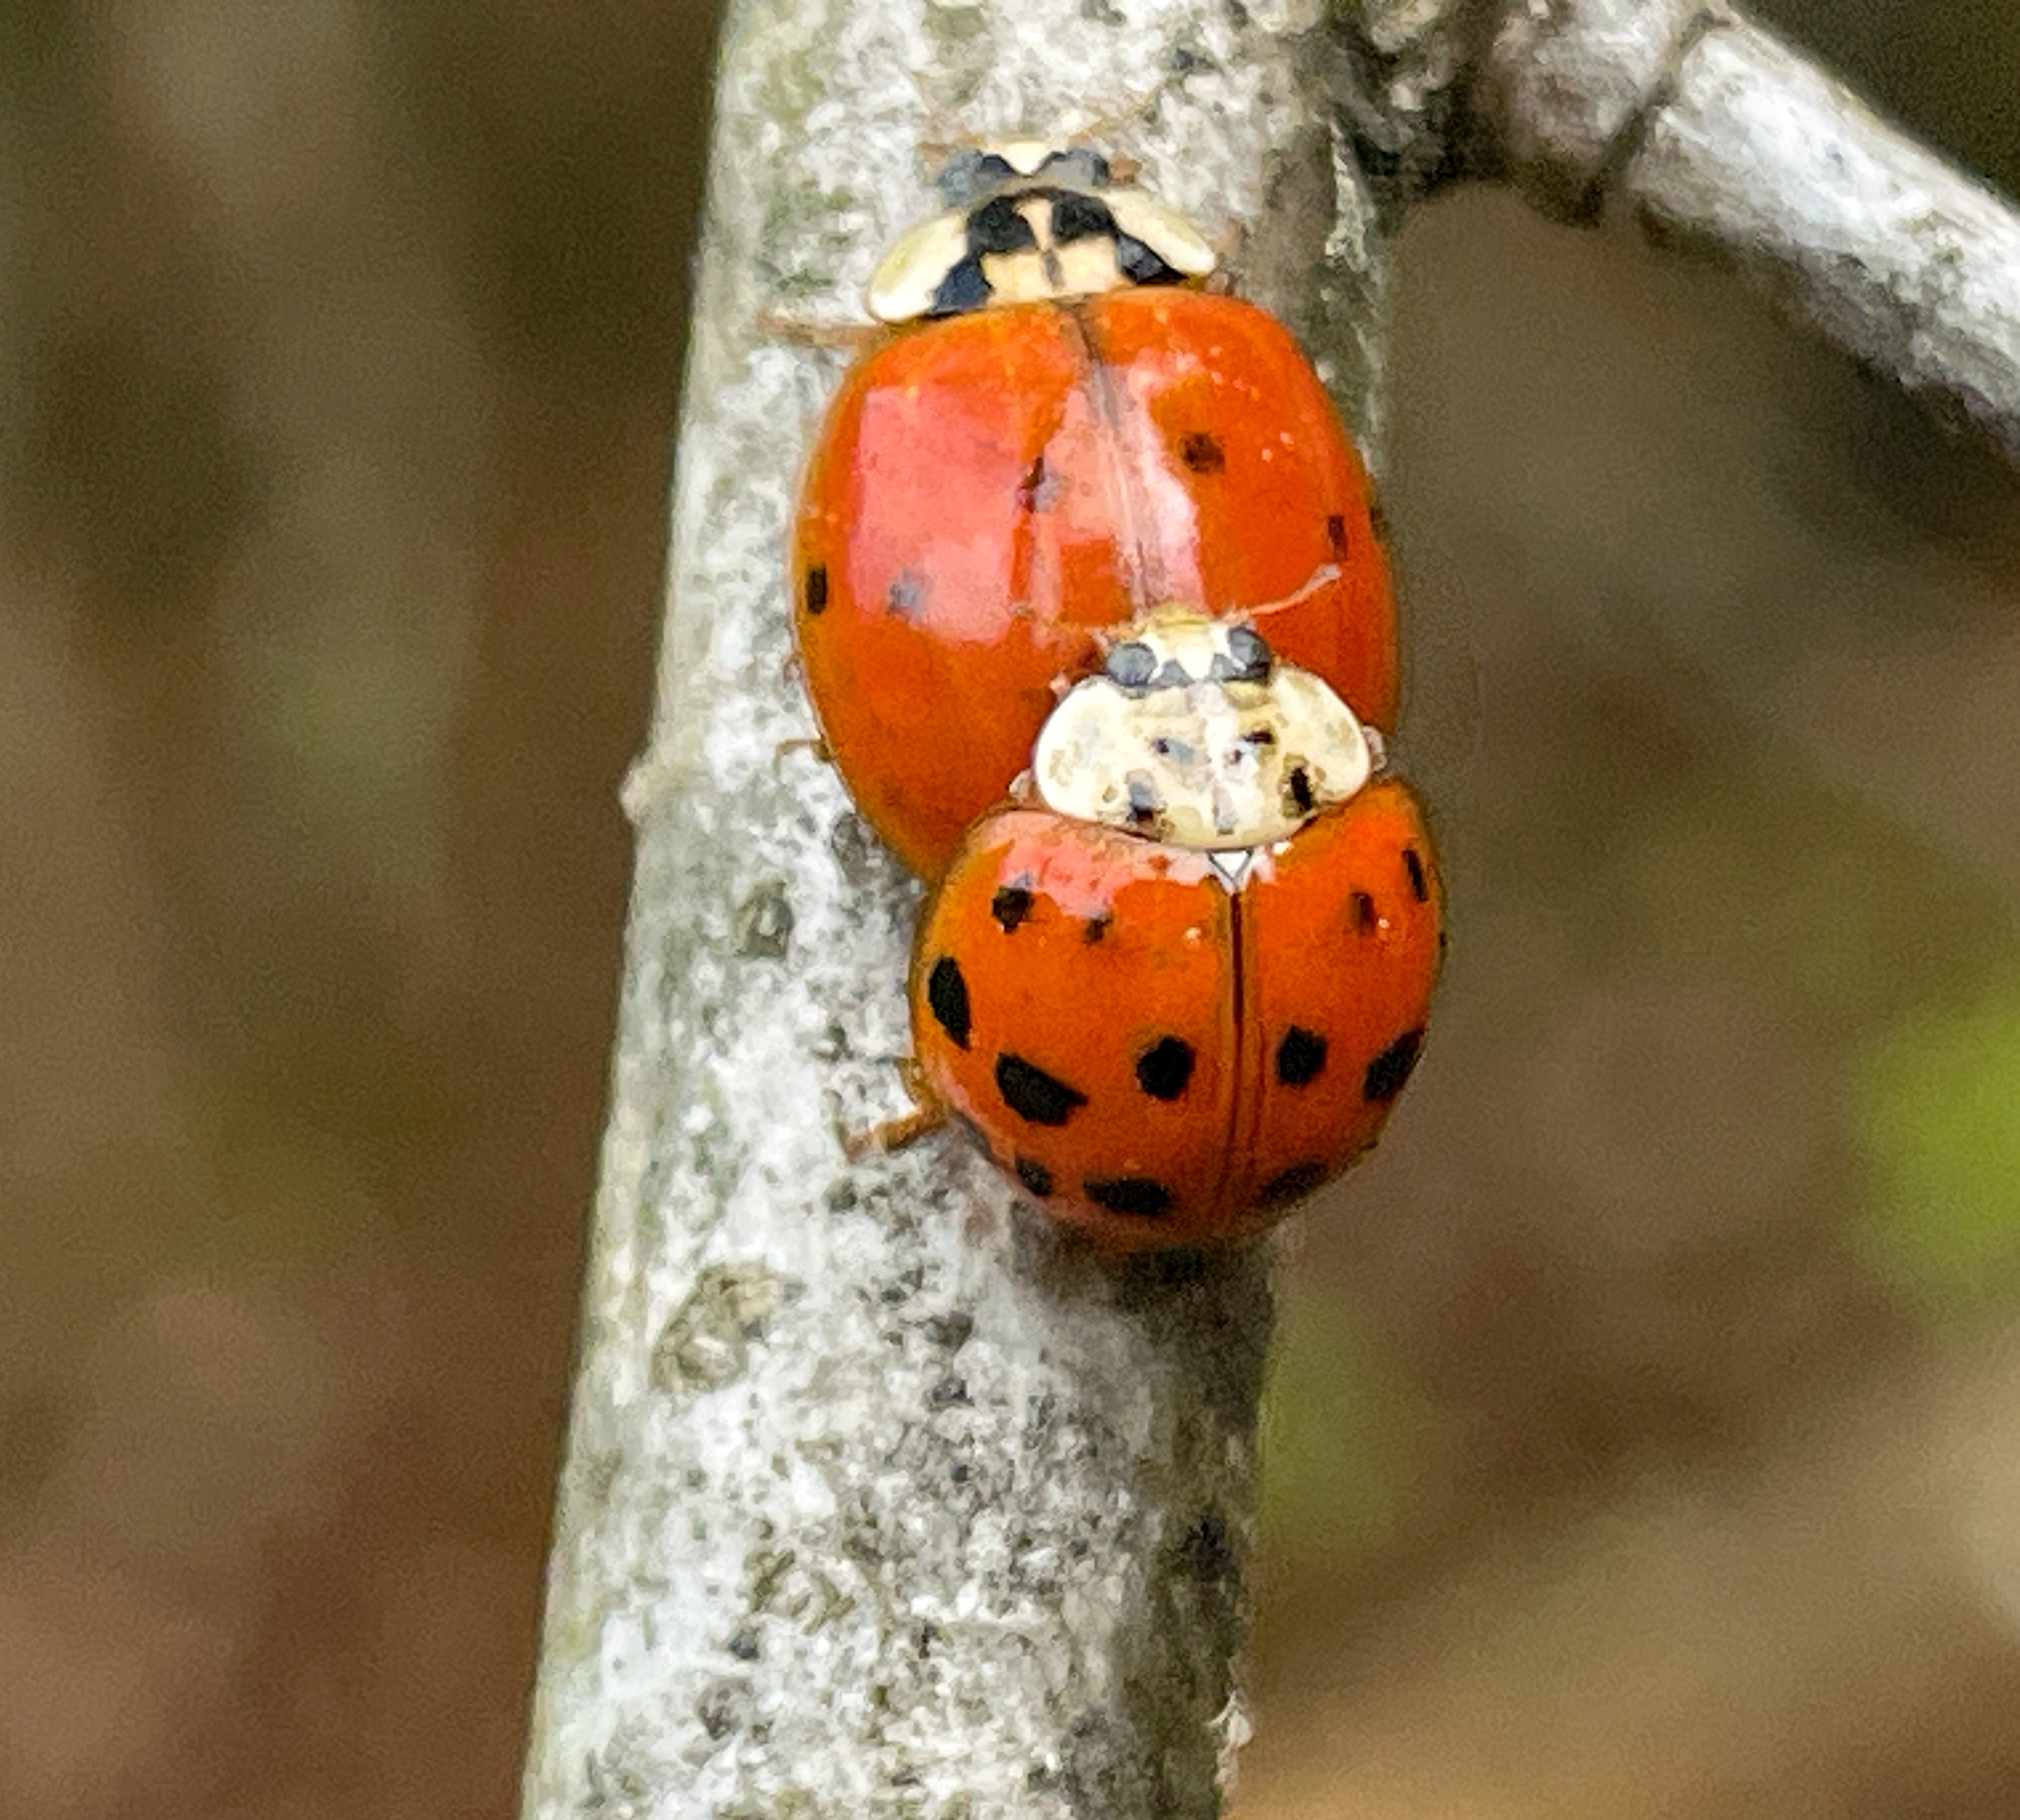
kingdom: Animalia
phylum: Arthropoda
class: Insecta
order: Coleoptera
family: Coccinellidae
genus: Harmonia
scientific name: Harmonia axyridis
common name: Harlequin ladybird
